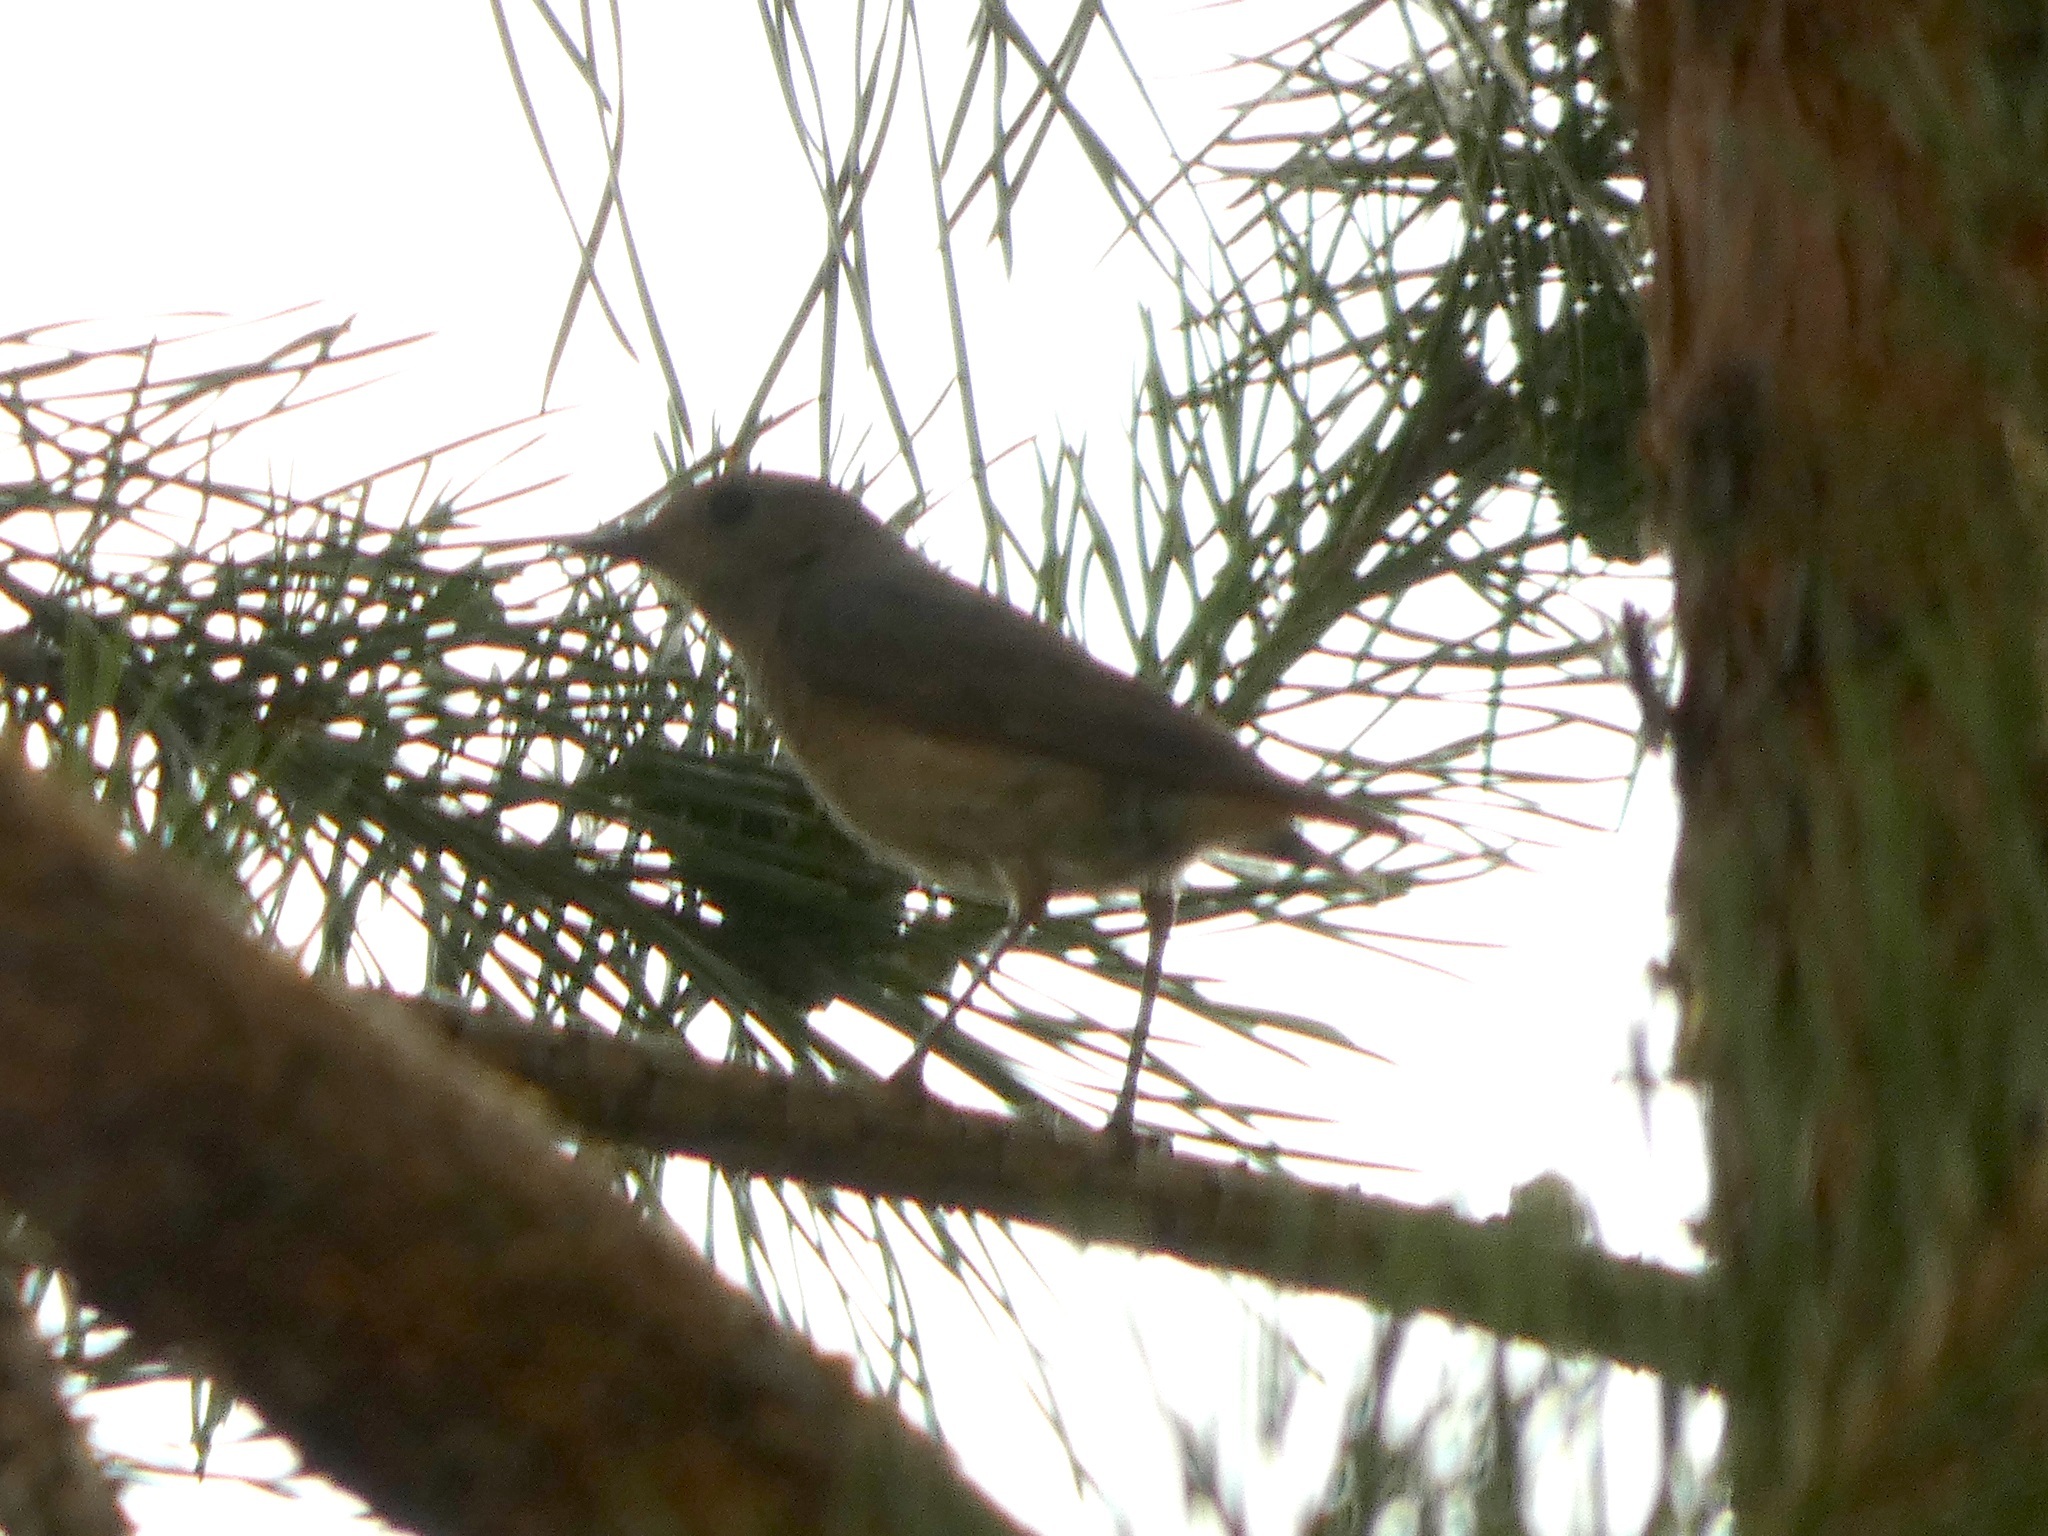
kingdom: Animalia
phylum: Chordata
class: Aves
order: Passeriformes
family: Muscicapidae
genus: Phoenicurus
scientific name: Phoenicurus phoenicurus
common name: Common redstart
